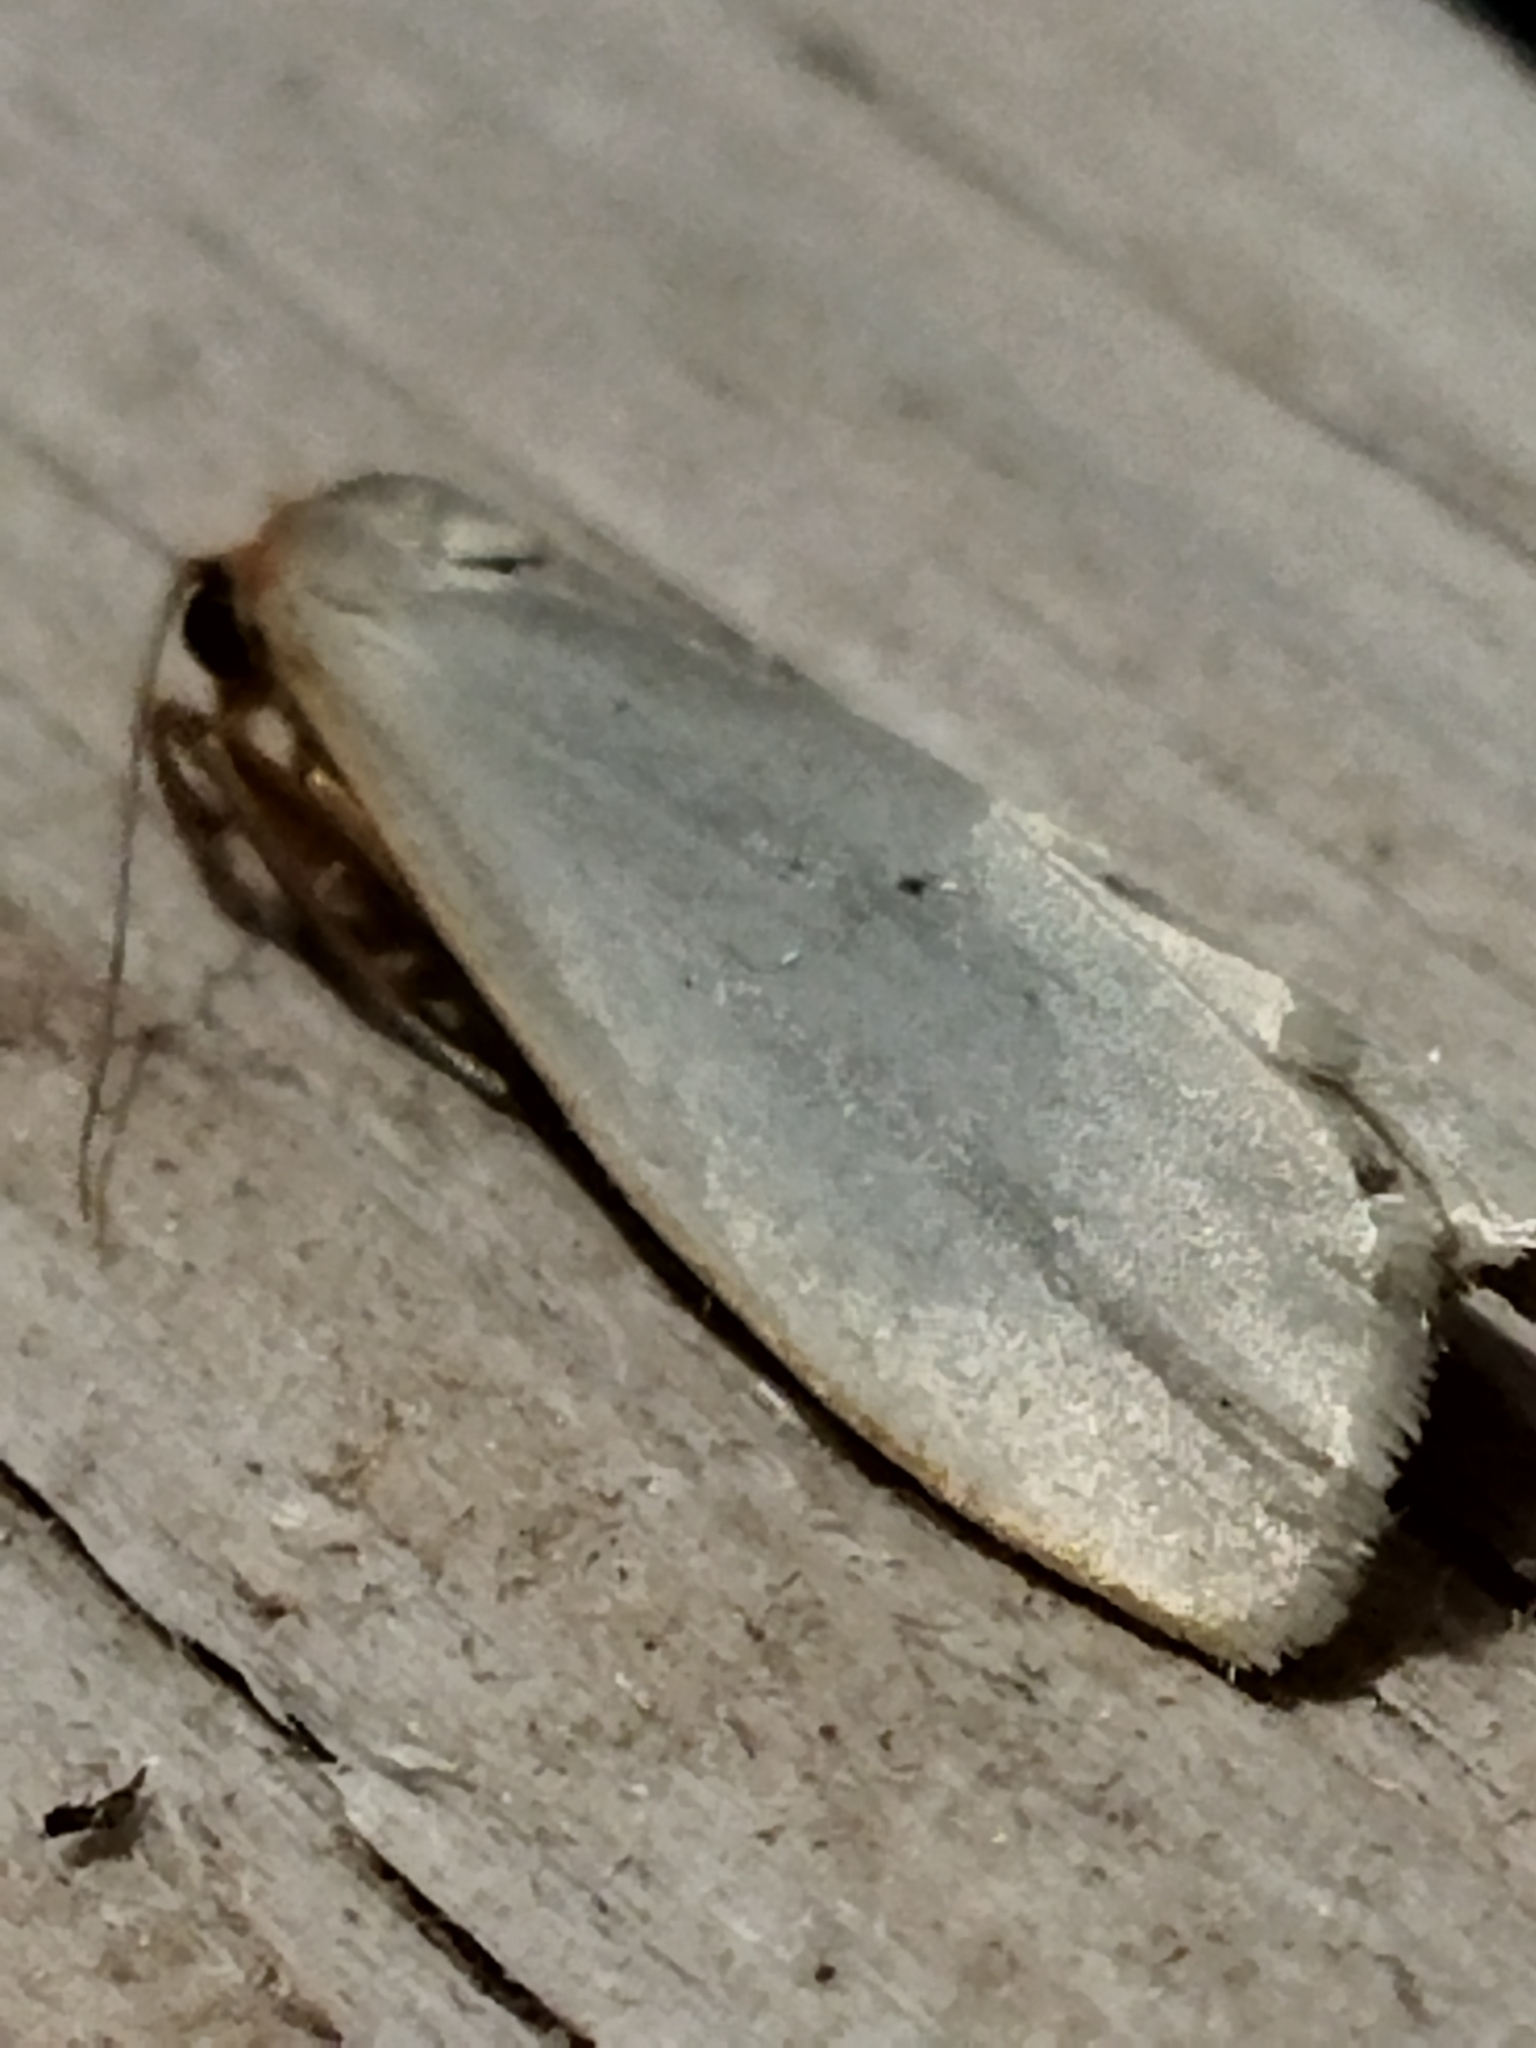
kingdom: Animalia
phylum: Arthropoda
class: Insecta
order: Lepidoptera
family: Erebidae
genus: Eilema
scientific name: Eilema caniola
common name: Hoary footman
